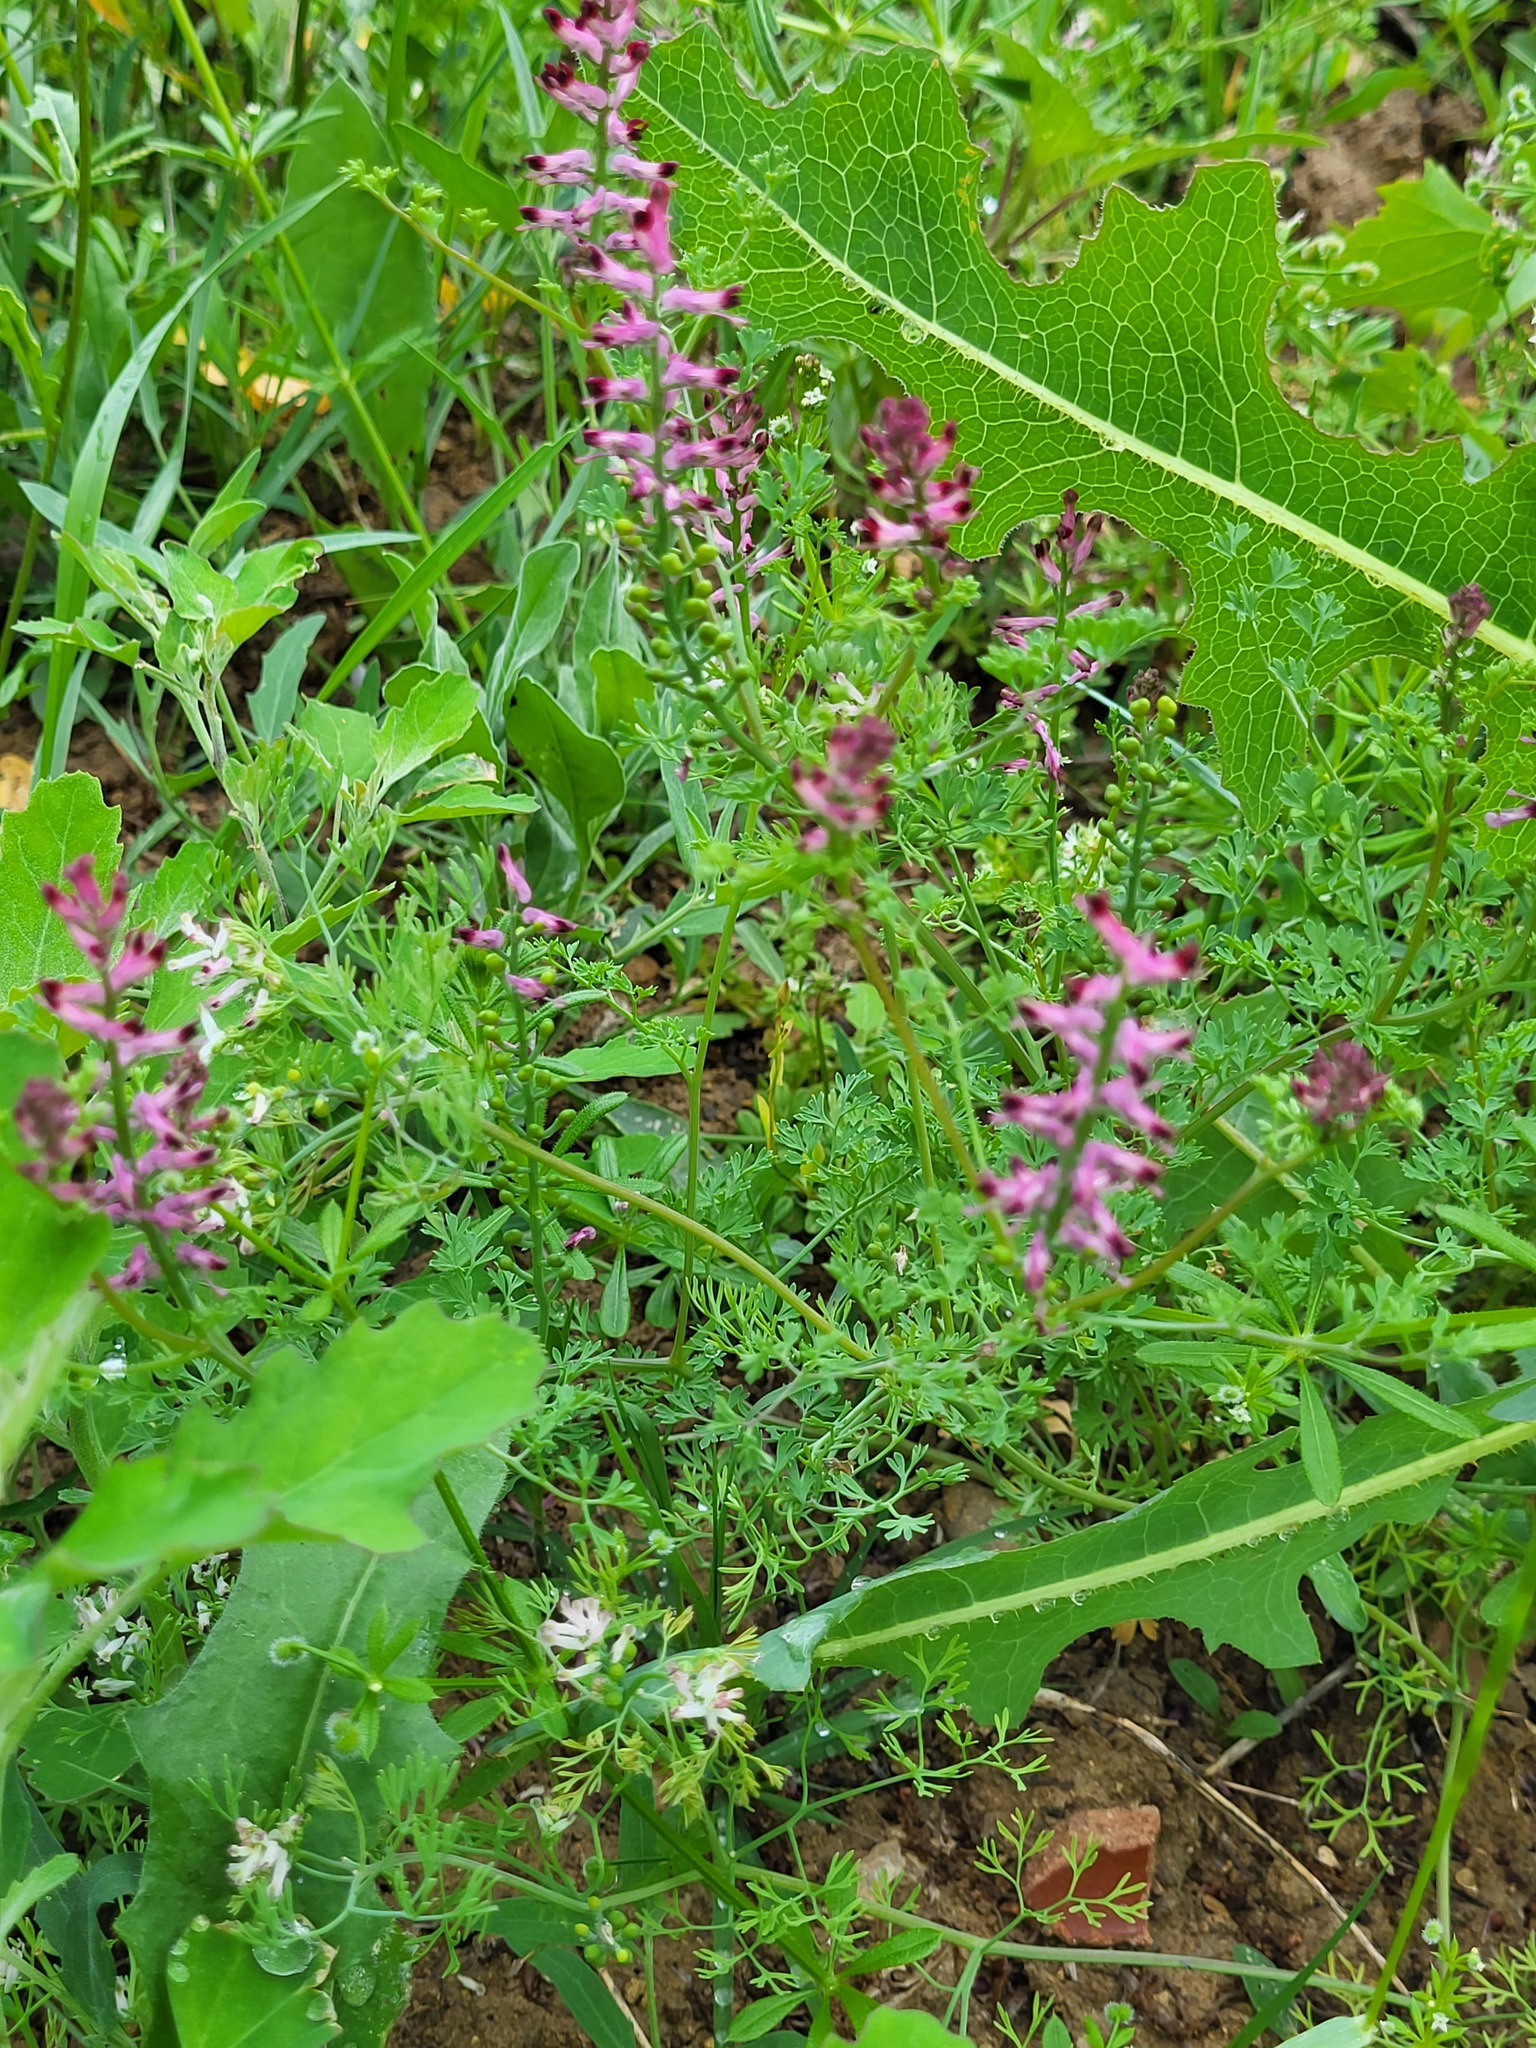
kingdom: Plantae
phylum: Tracheophyta
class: Magnoliopsida
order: Ranunculales
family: Papaveraceae
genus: Fumaria
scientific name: Fumaria officinalis
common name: Common fumitory
